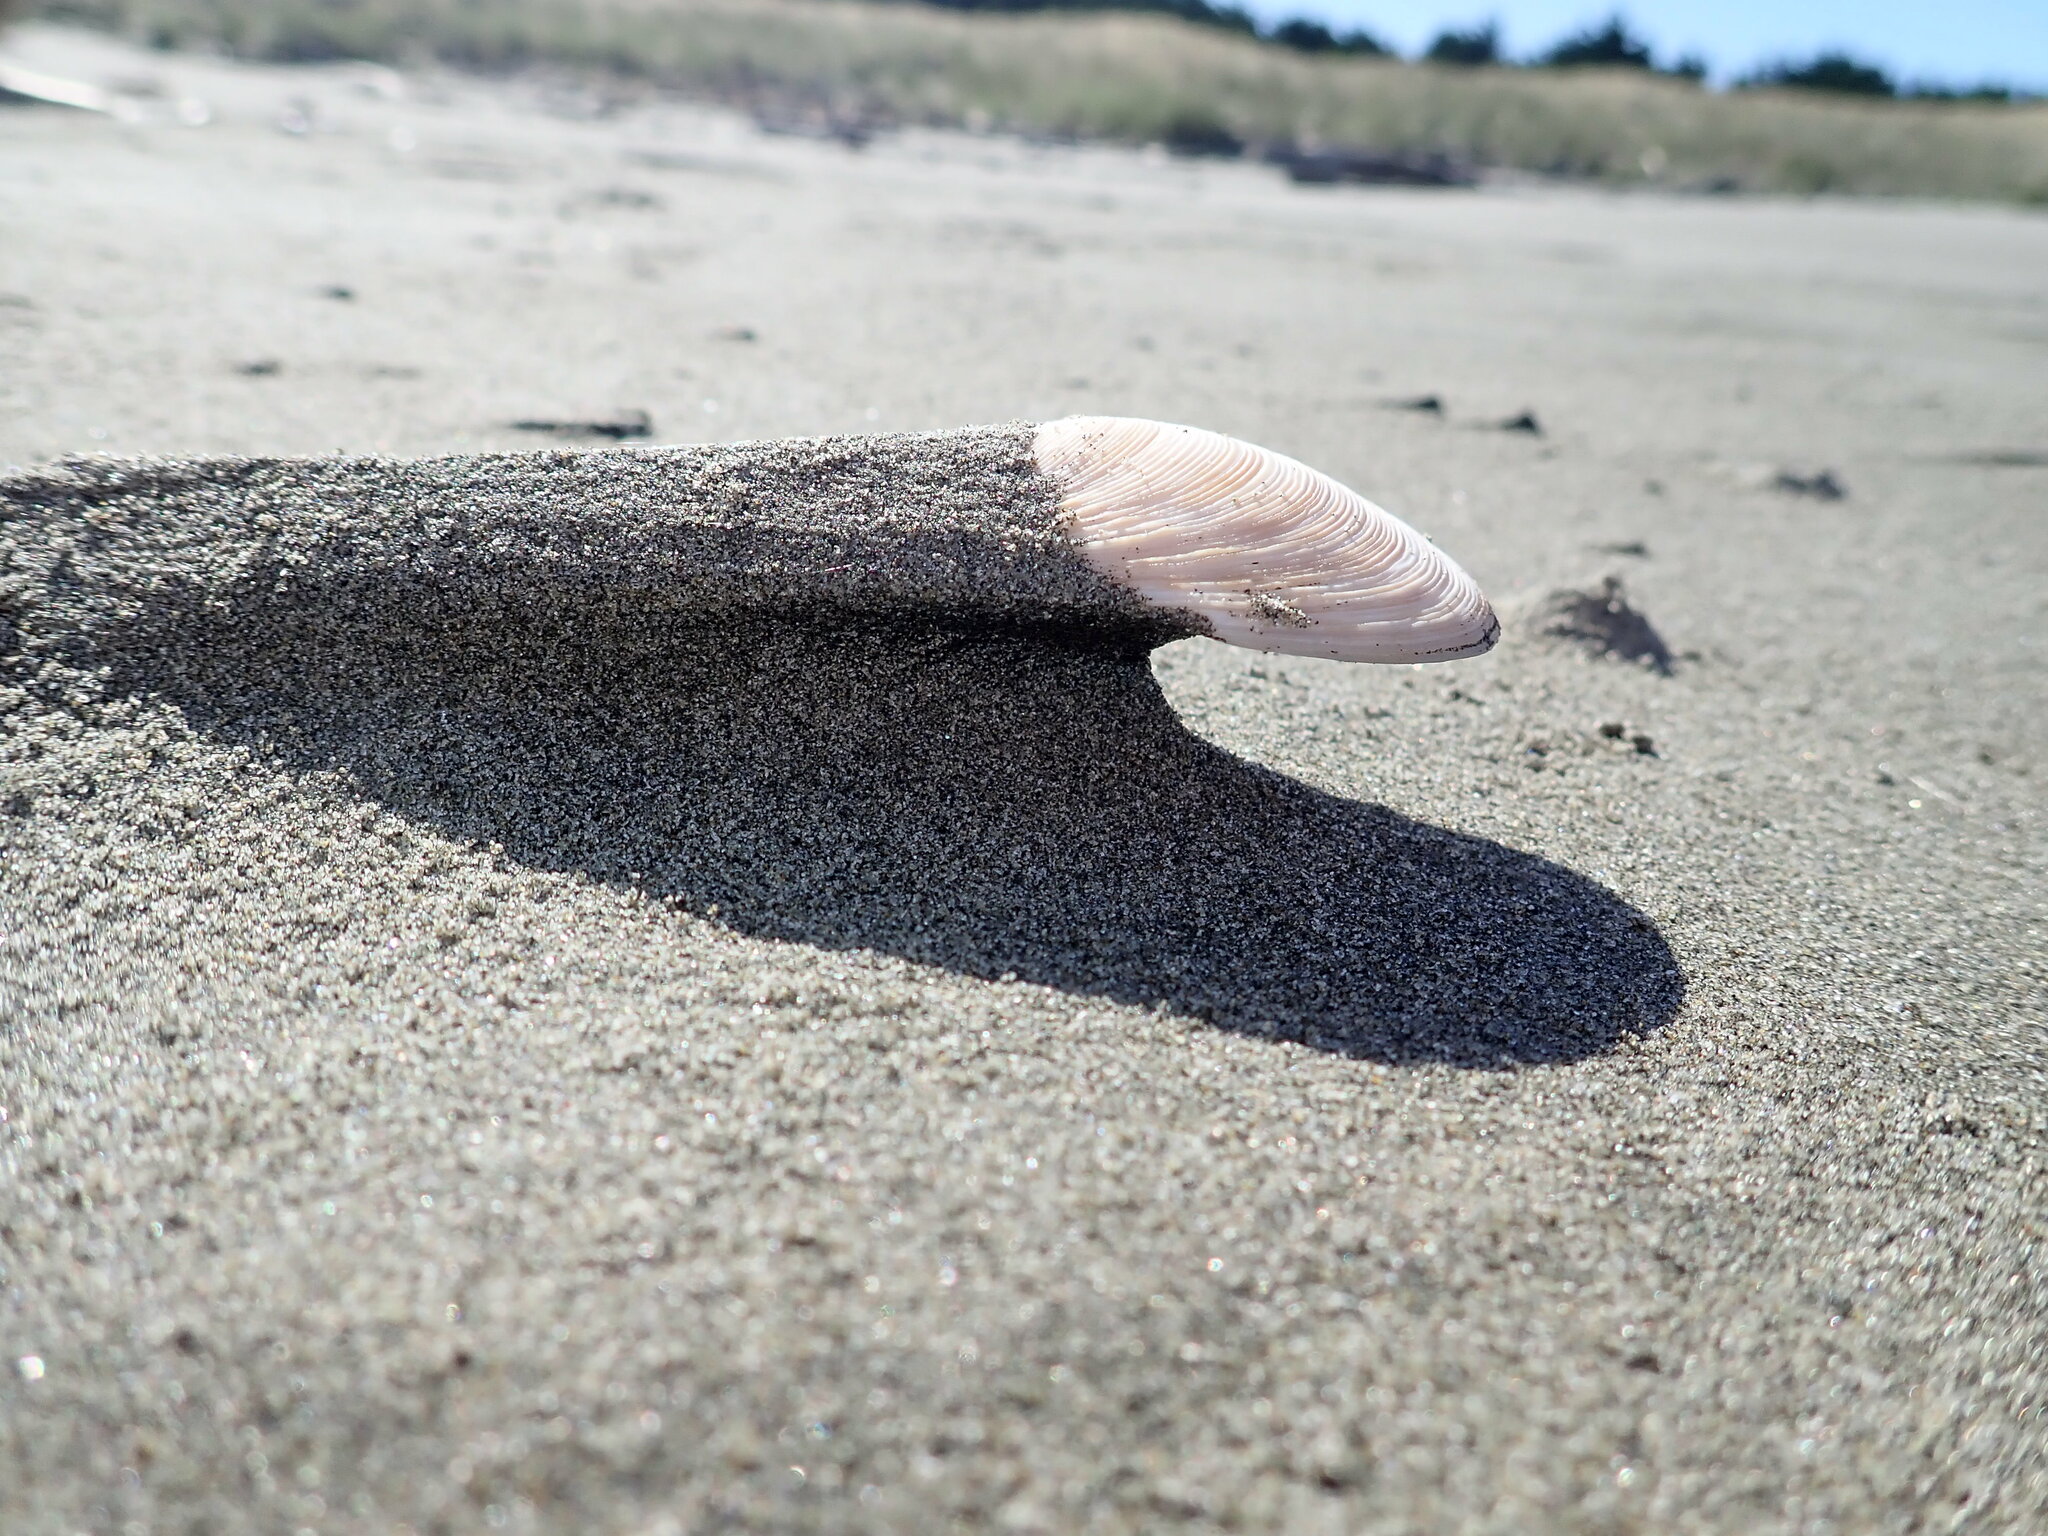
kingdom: Animalia
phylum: Mollusca
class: Bivalvia
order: Venerida
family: Veneridae
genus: Dosinia
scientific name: Dosinia anus
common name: Old-woman dosinia
